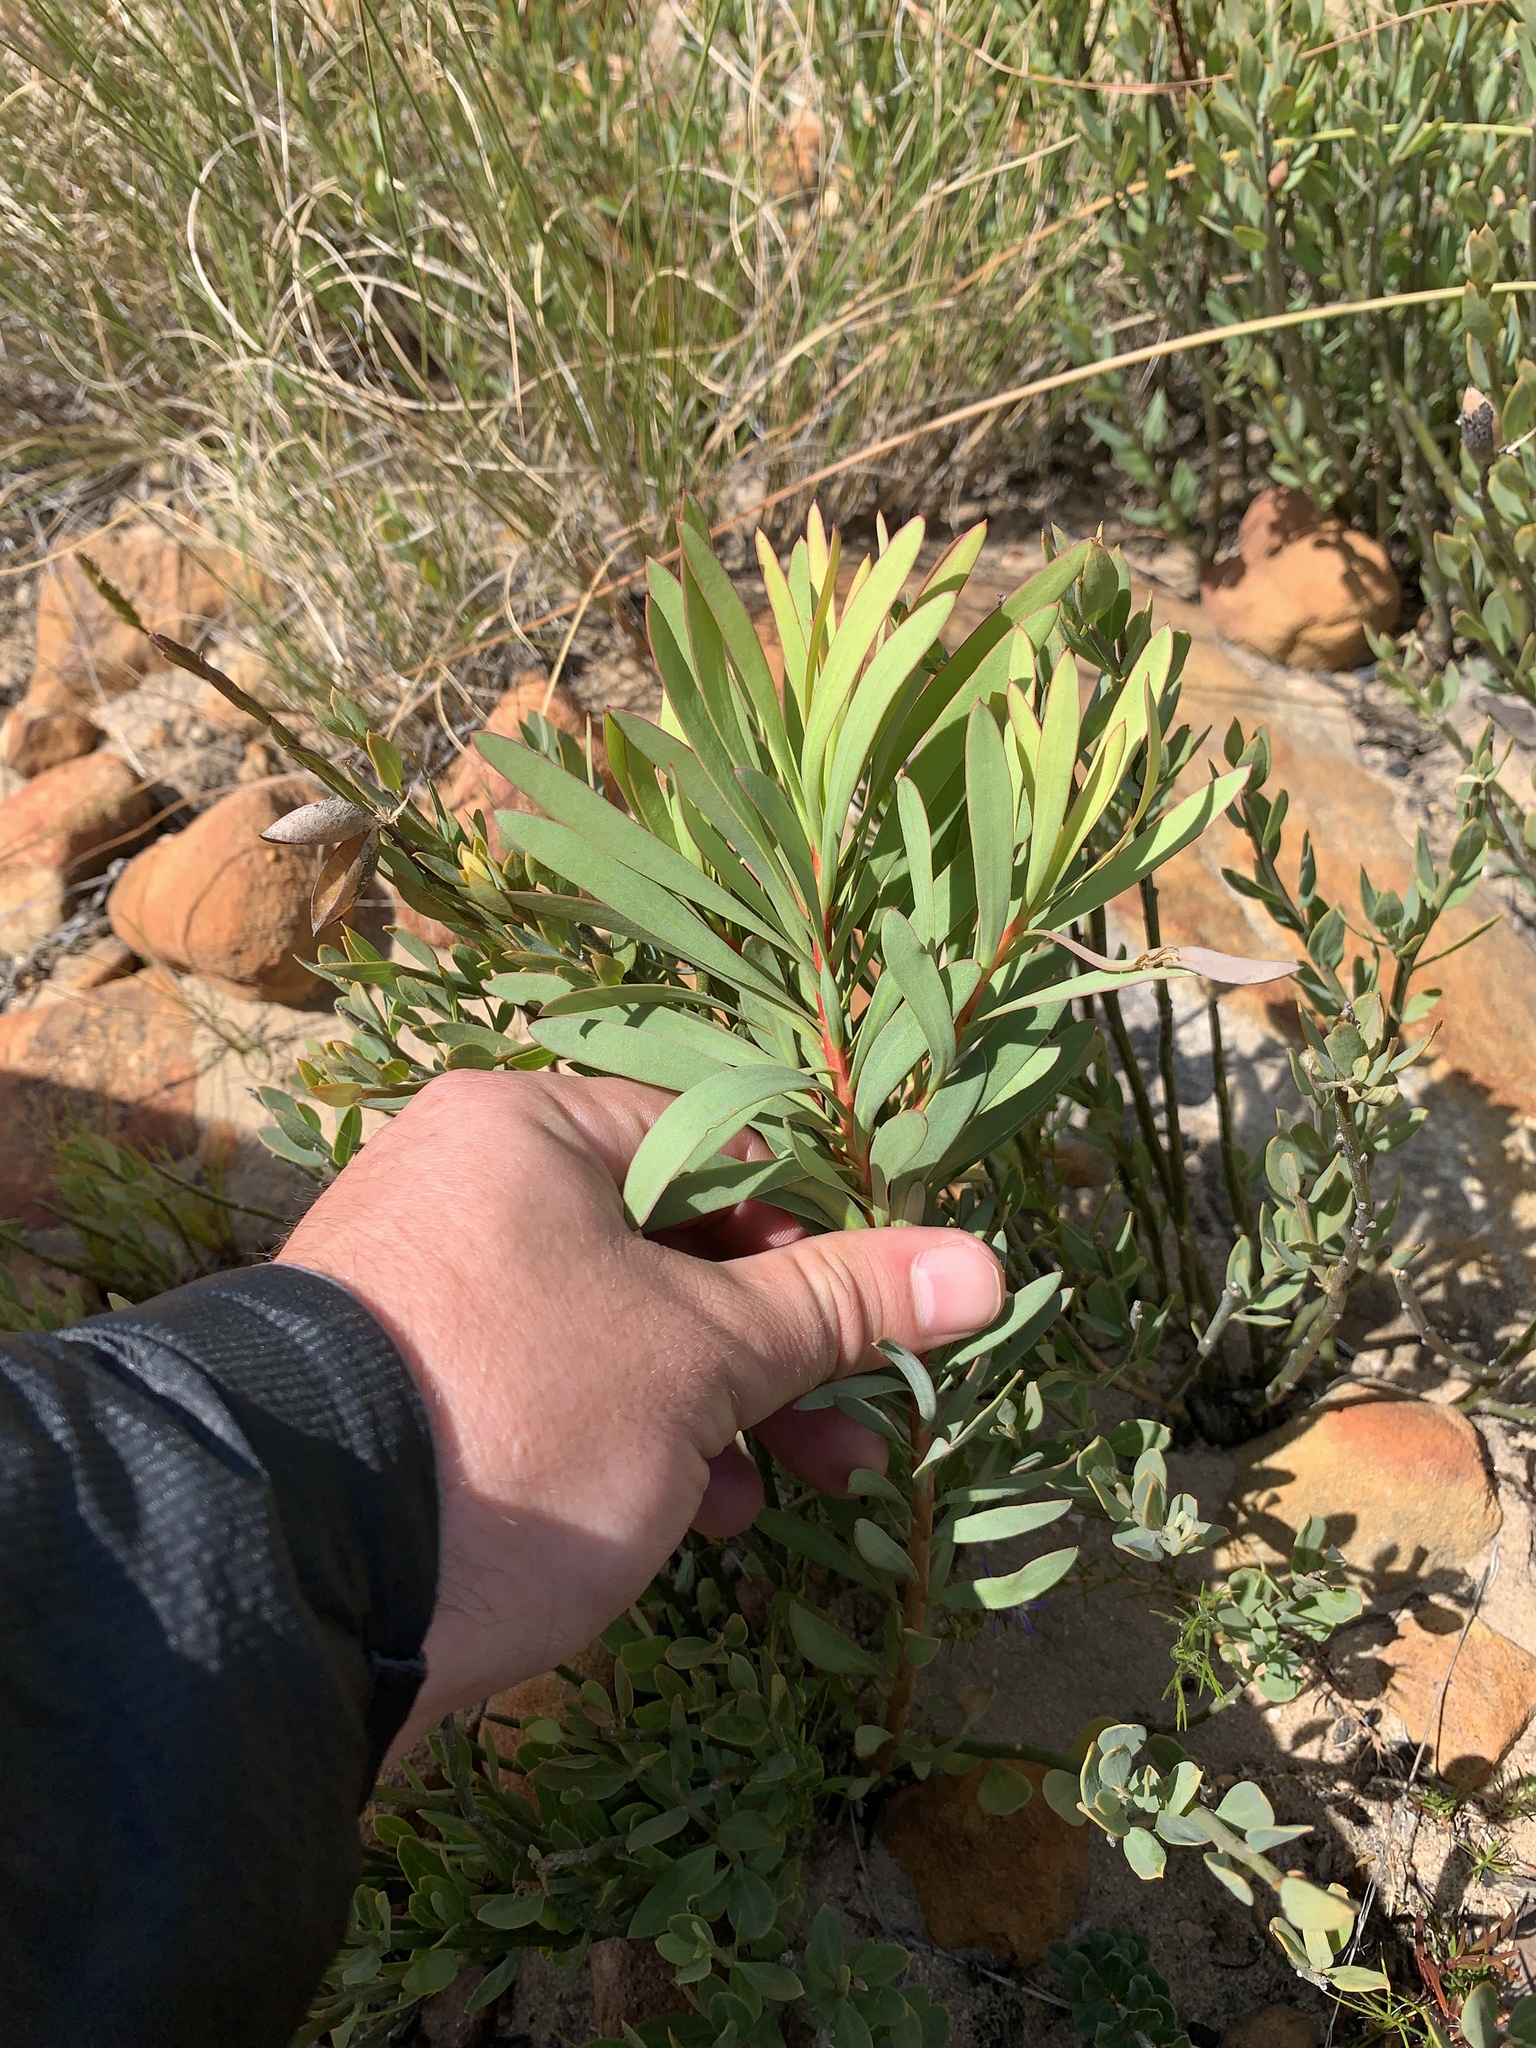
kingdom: Plantae
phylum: Tracheophyta
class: Magnoliopsida
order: Proteales
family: Proteaceae
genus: Protea
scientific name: Protea repens
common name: Sugarbush
